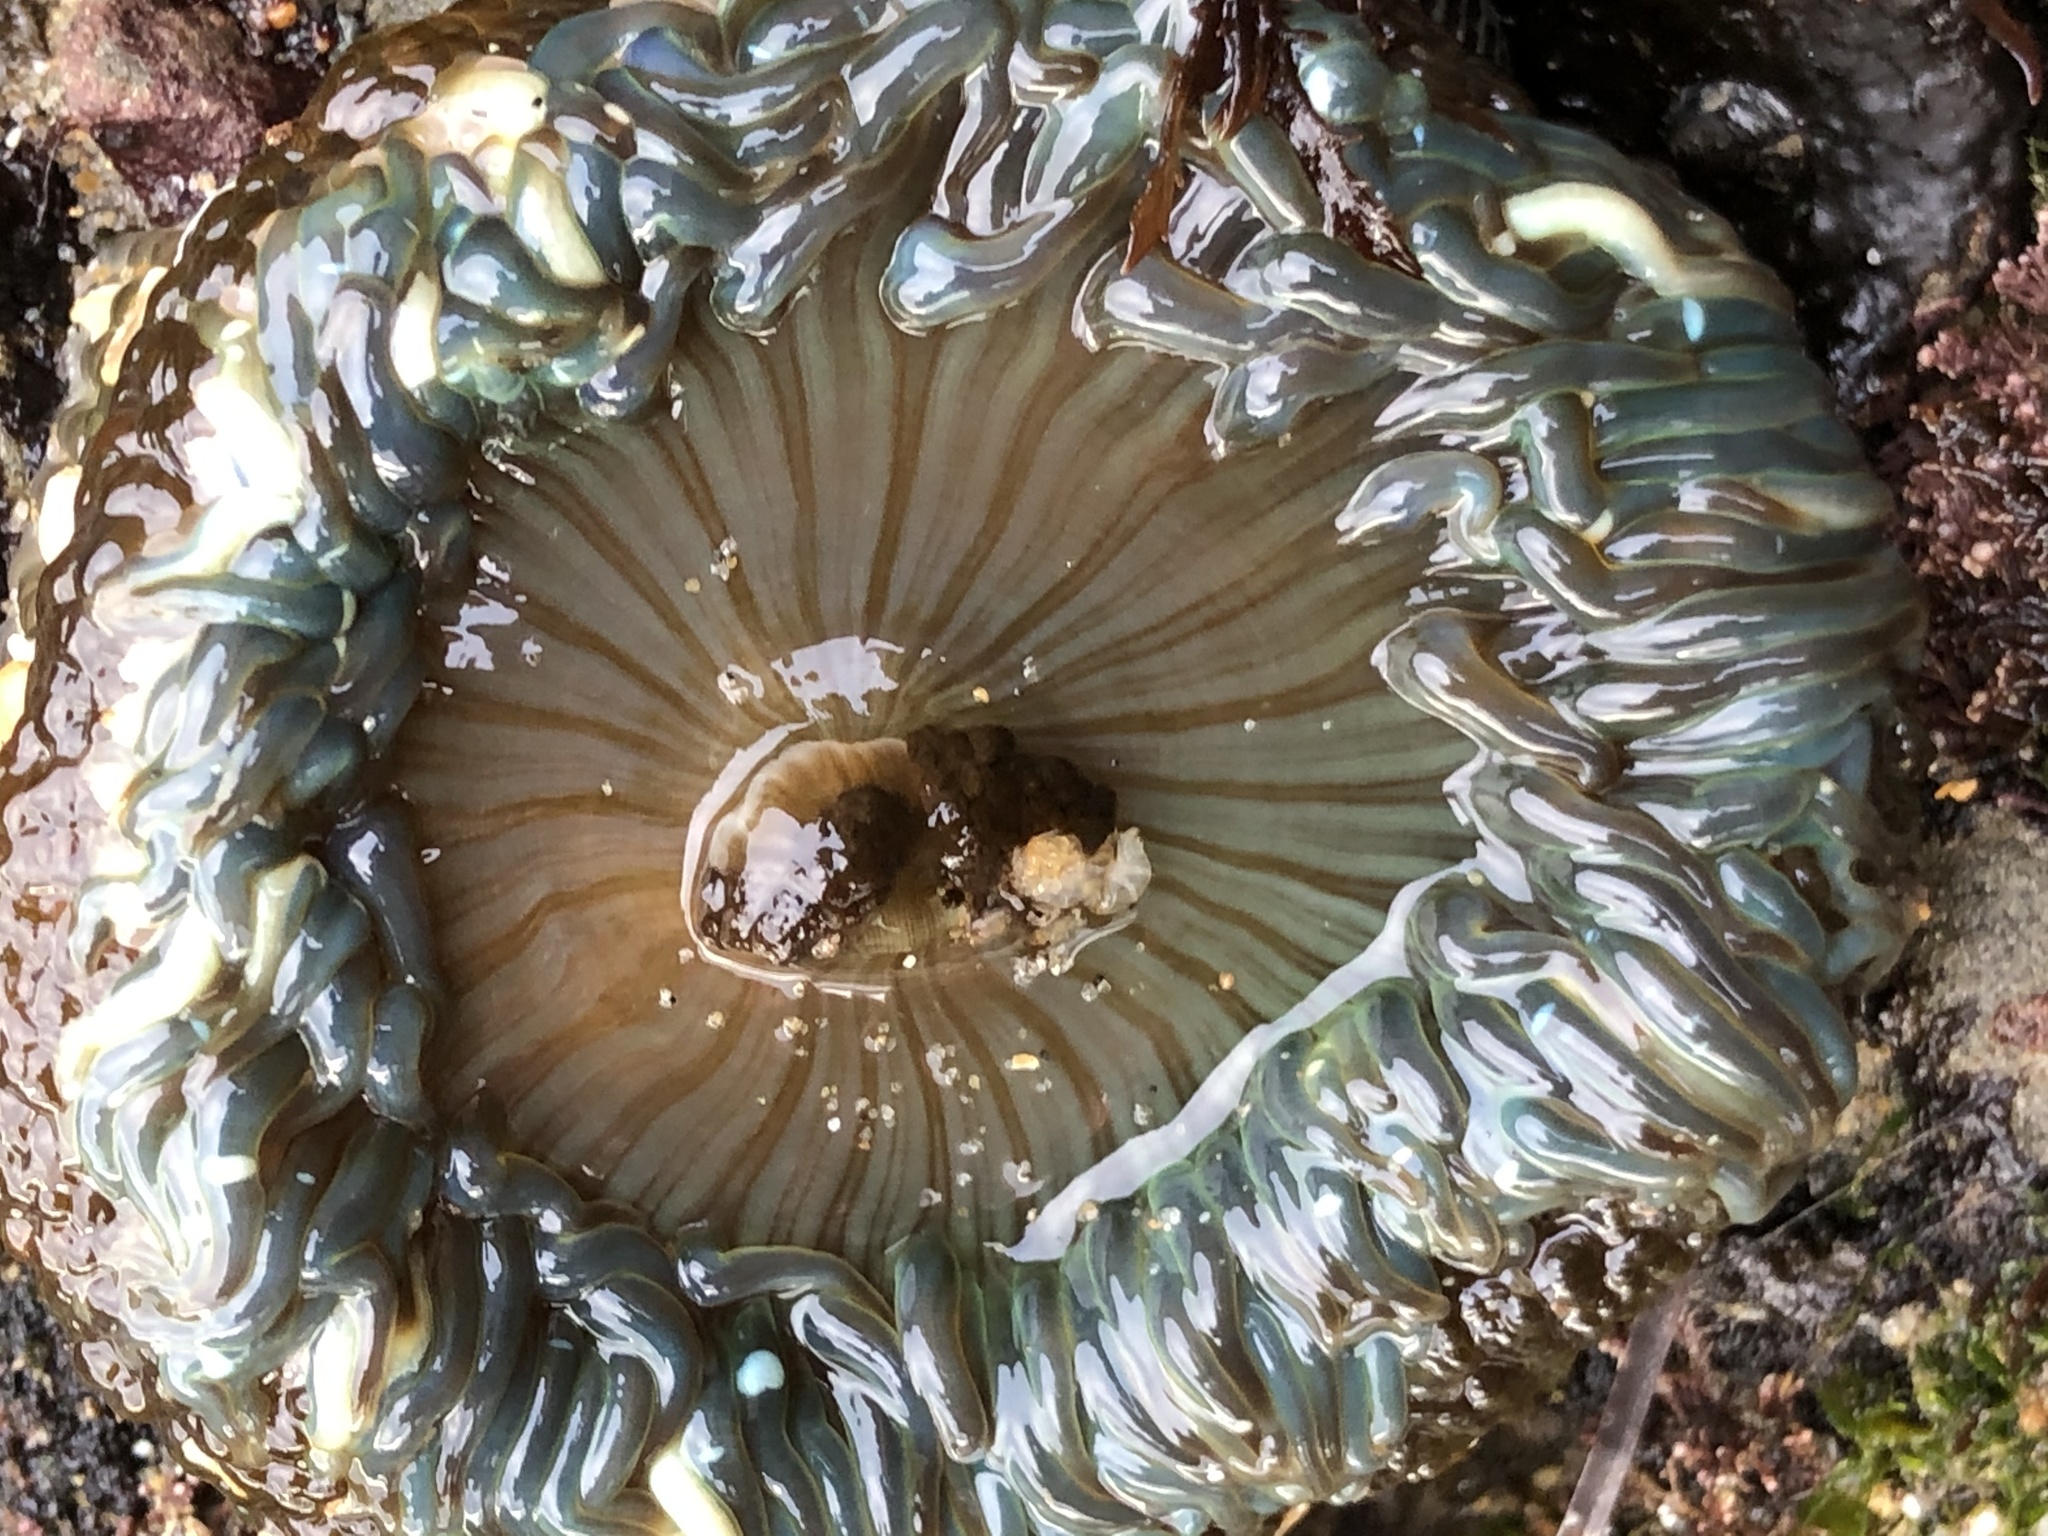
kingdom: Animalia
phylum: Cnidaria
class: Anthozoa
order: Actiniaria
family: Actiniidae
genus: Anthopleura
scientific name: Anthopleura sola
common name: Sun anemone
